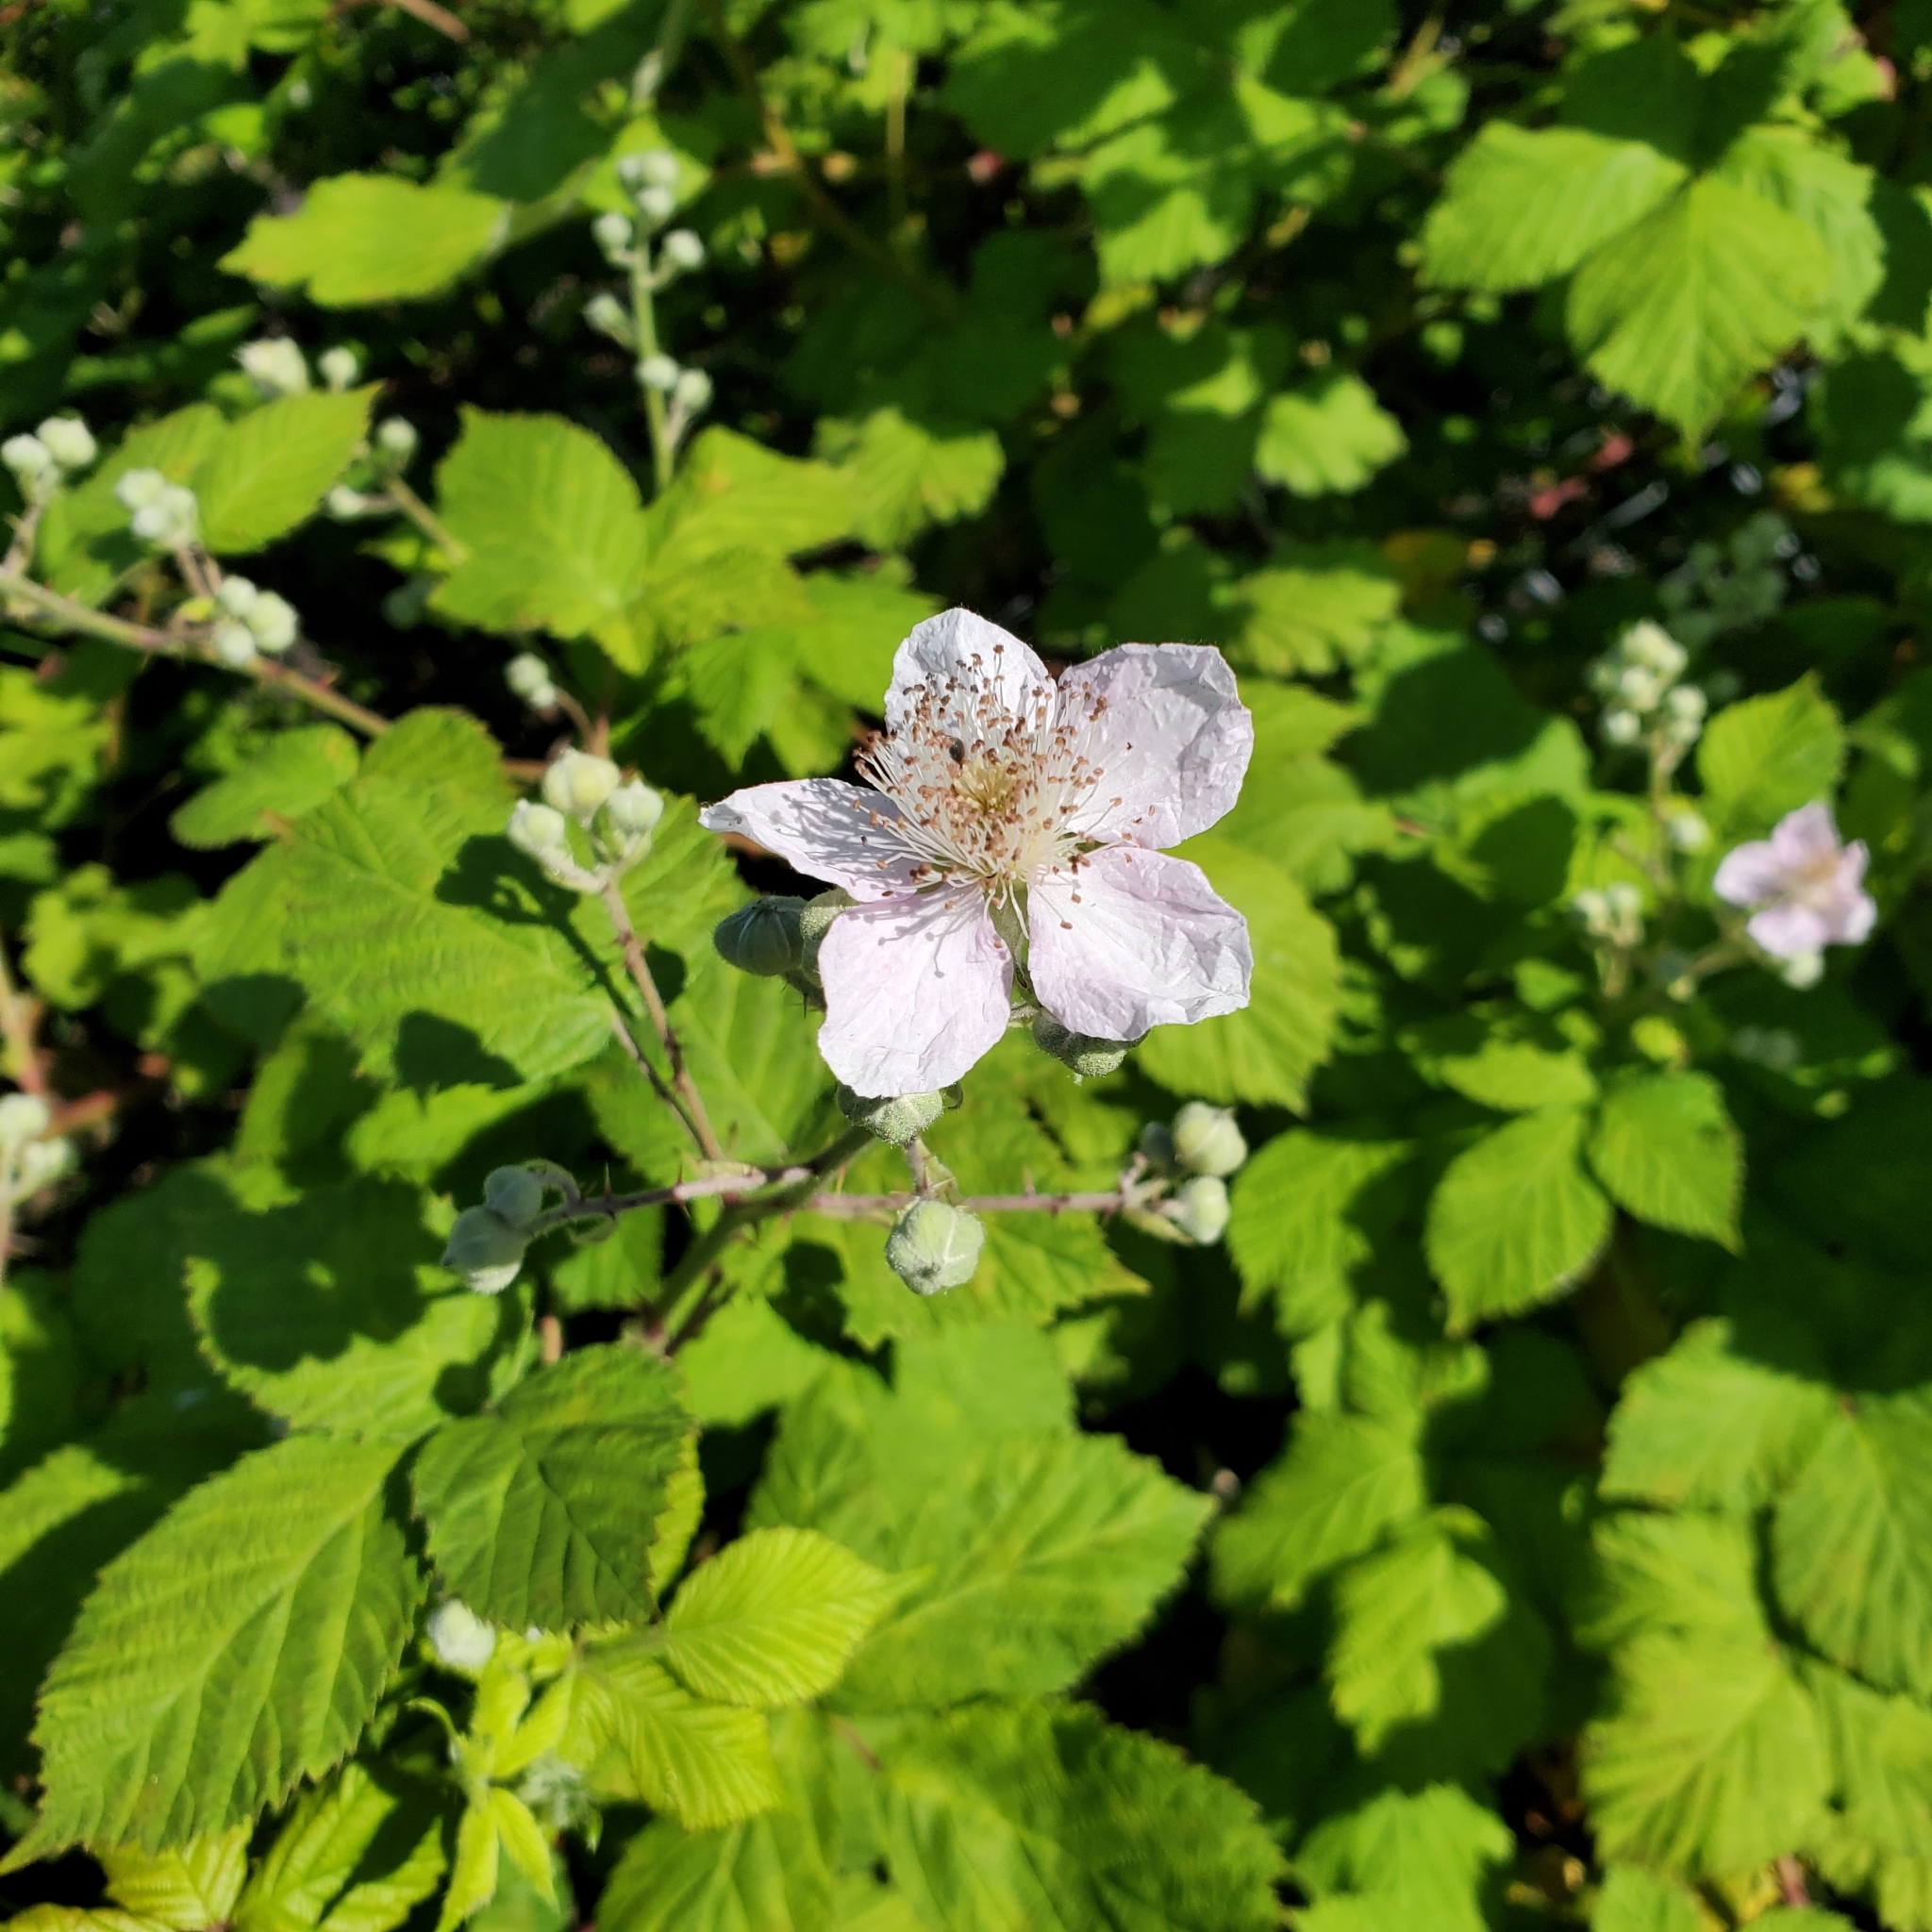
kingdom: Plantae
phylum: Tracheophyta
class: Magnoliopsida
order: Rosales
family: Rosaceae
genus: Rubus
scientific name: Rubus bifrons
